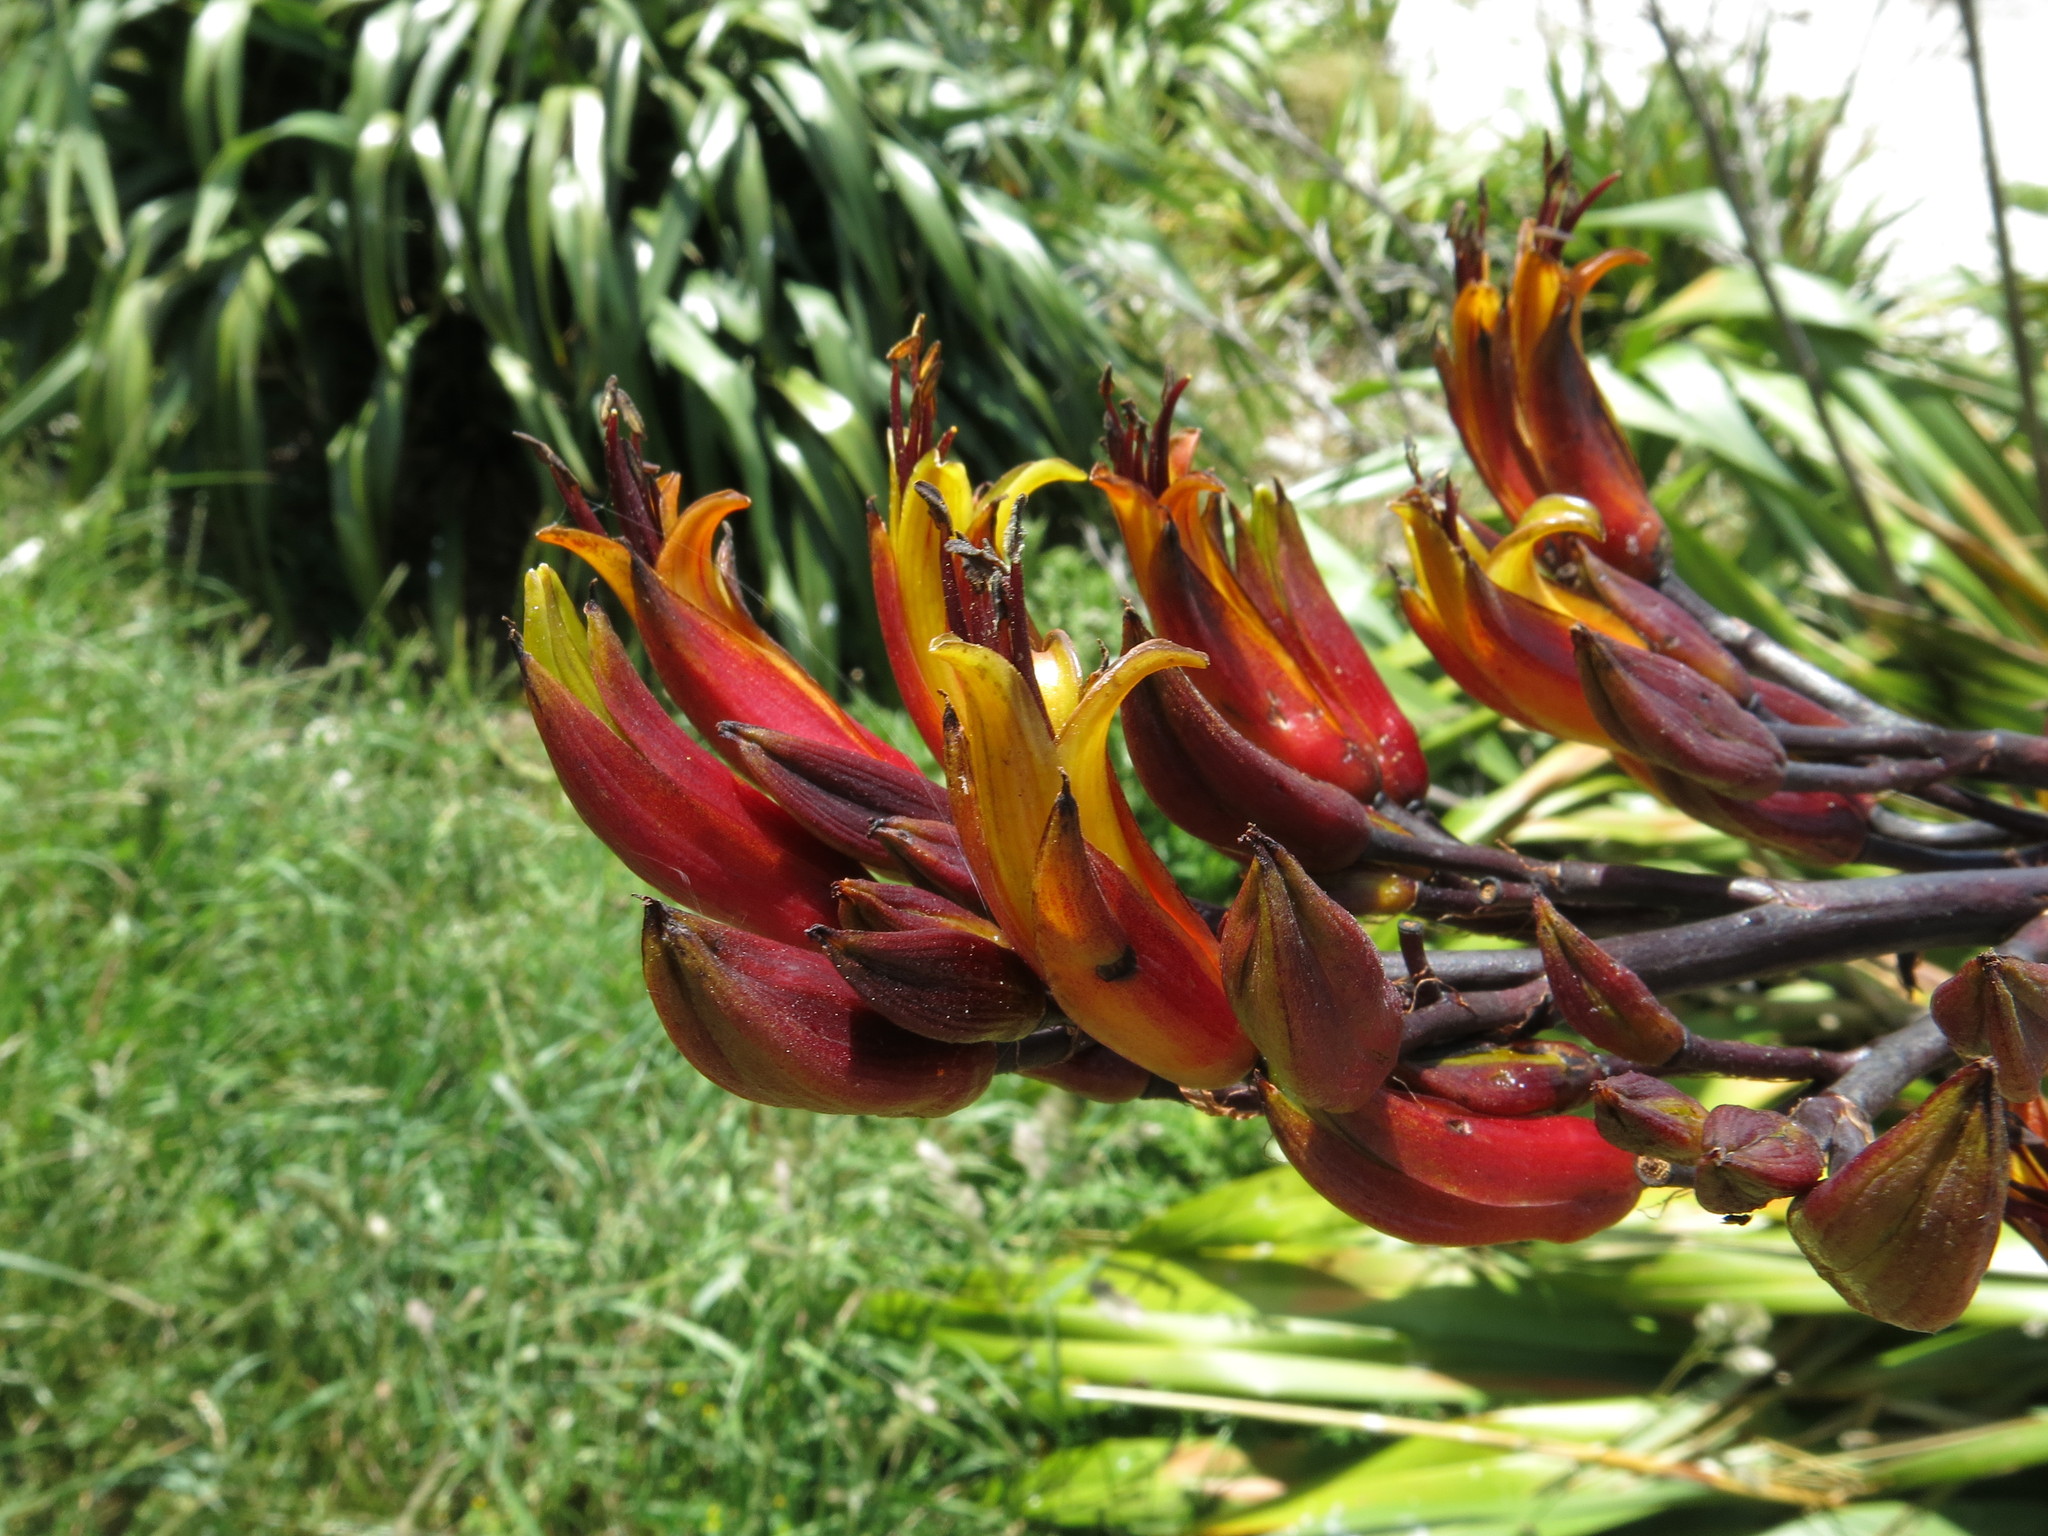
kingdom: Plantae
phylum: Tracheophyta
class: Liliopsida
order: Asparagales
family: Asphodelaceae
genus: Phormium
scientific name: Phormium colensoi
